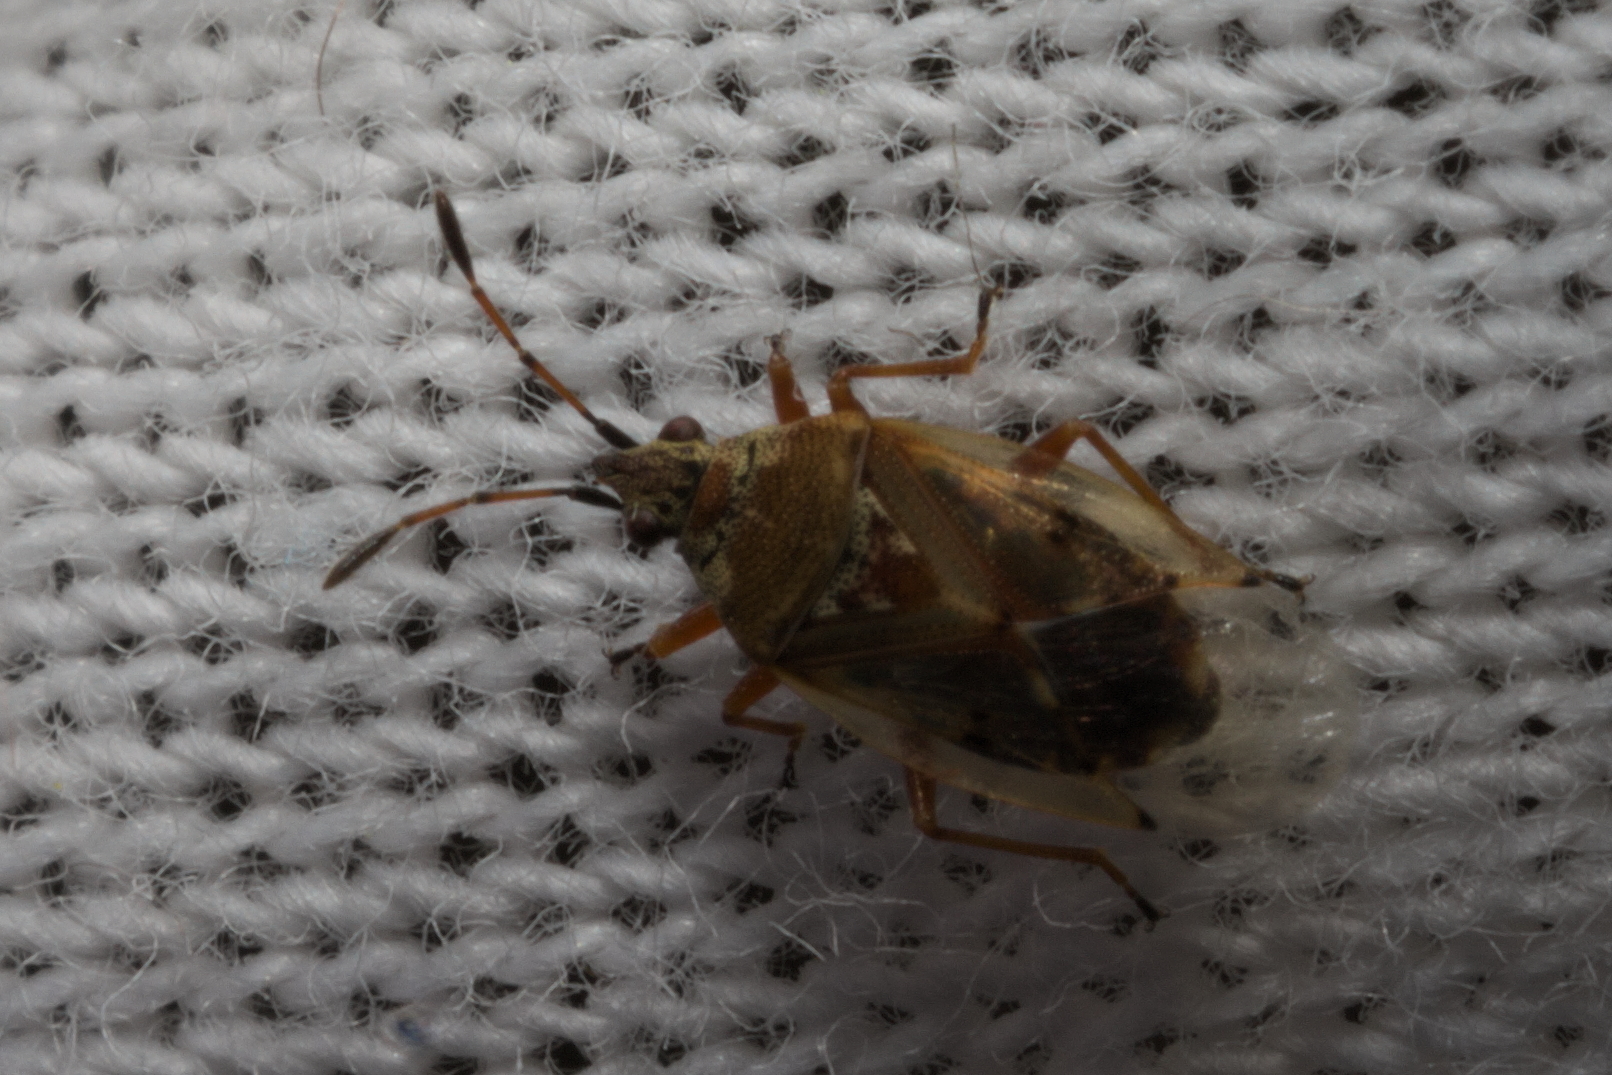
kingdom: Animalia
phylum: Arthropoda
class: Insecta
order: Hemiptera
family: Lygaeidae
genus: Kleidocerys
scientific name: Kleidocerys resedae
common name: Birch catkin bug
